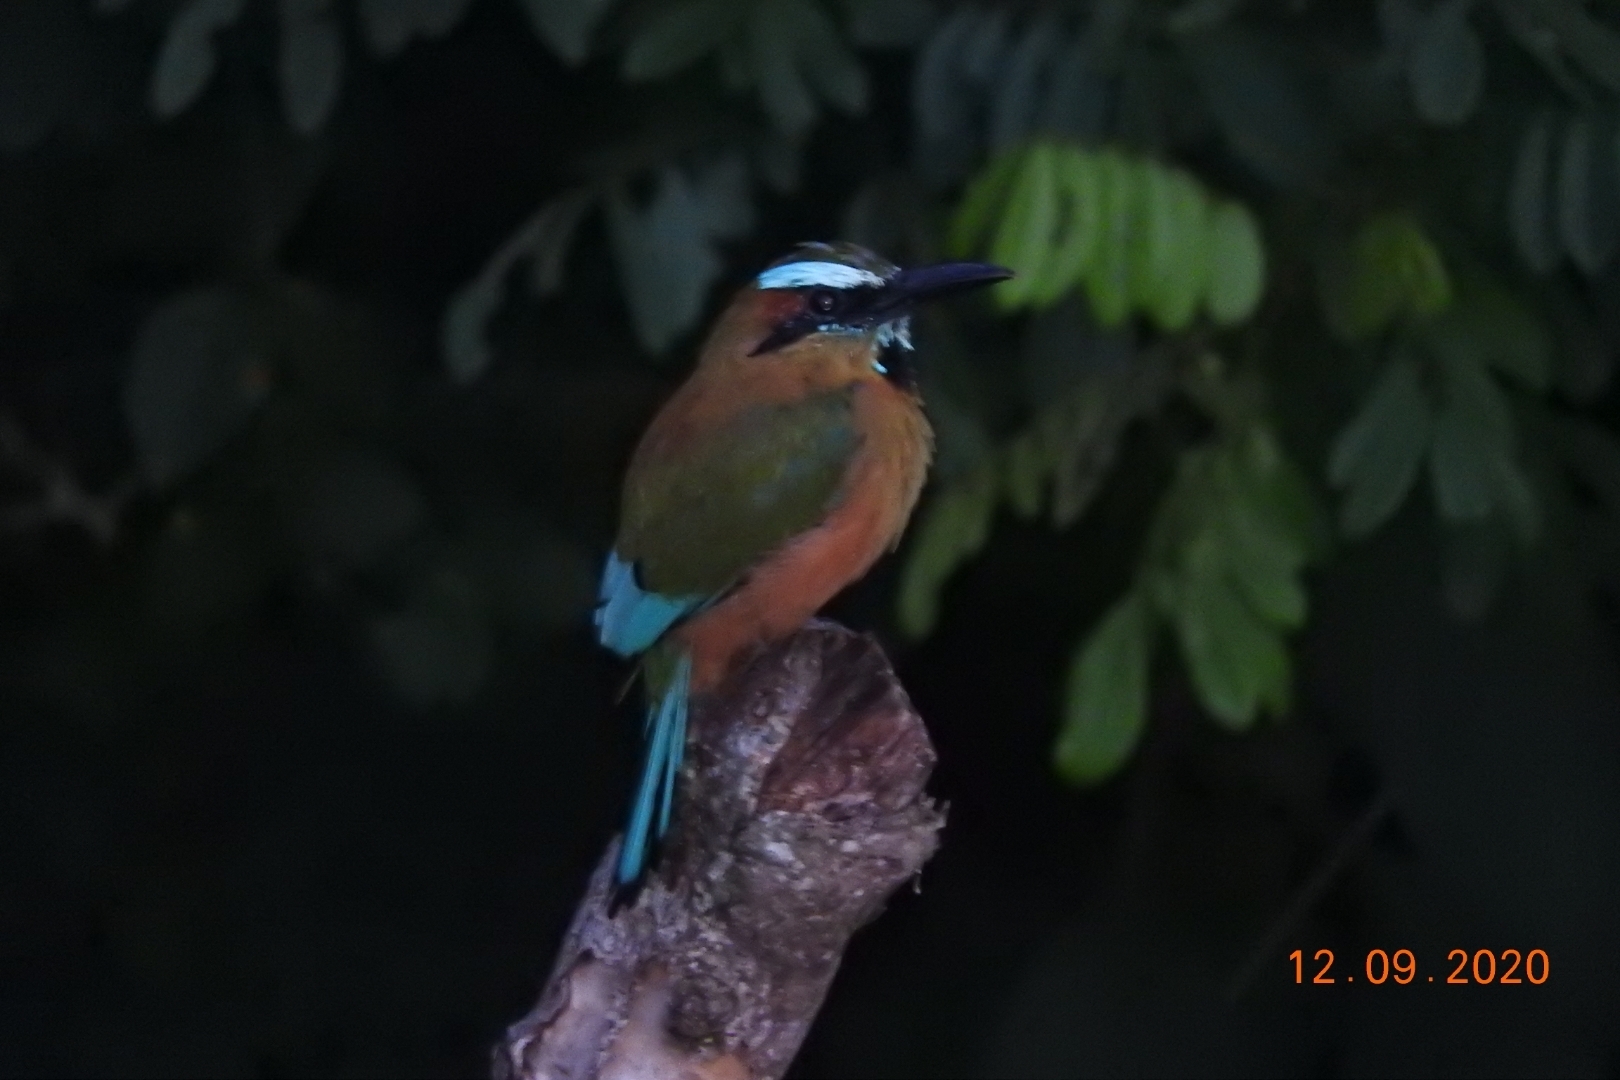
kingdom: Animalia
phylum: Chordata
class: Aves
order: Coraciiformes
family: Momotidae
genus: Eumomota
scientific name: Eumomota superciliosa
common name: Turquoise-browed motmot
